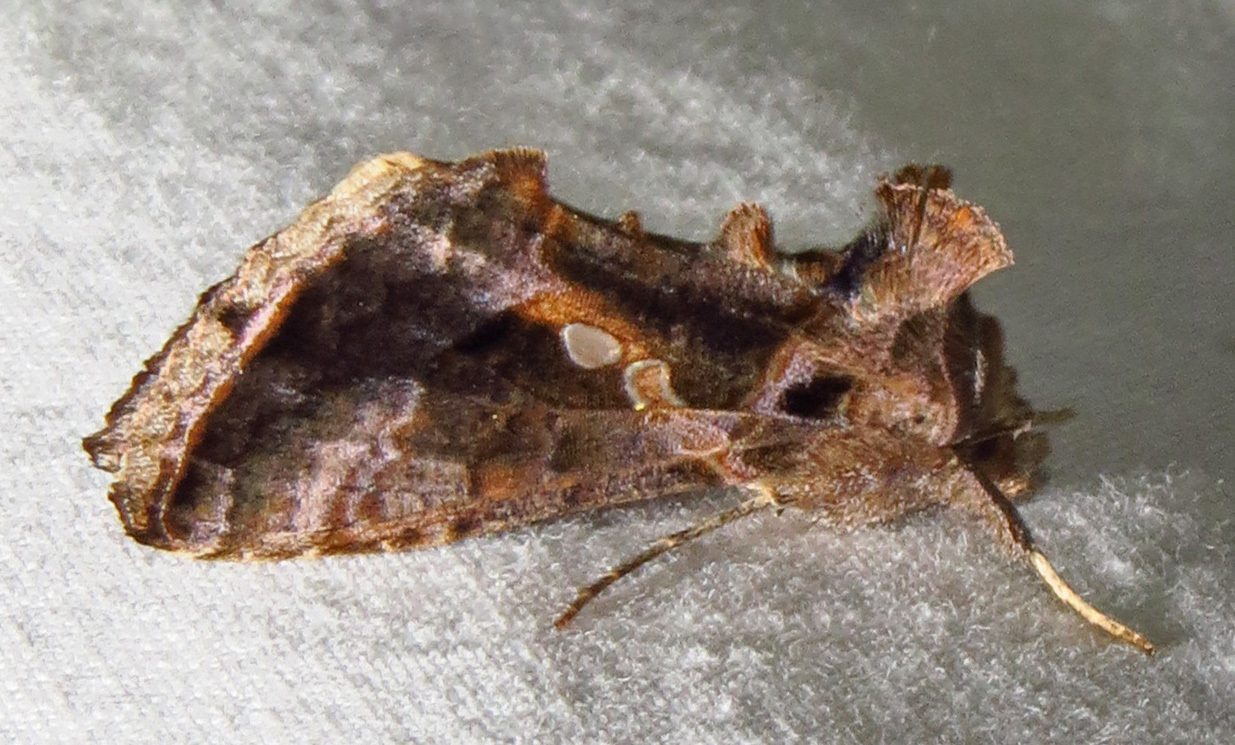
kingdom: Animalia
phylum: Arthropoda
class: Insecta
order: Lepidoptera
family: Noctuidae
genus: Chrysodeixis
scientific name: Chrysodeixis includens
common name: Cutworm moth
